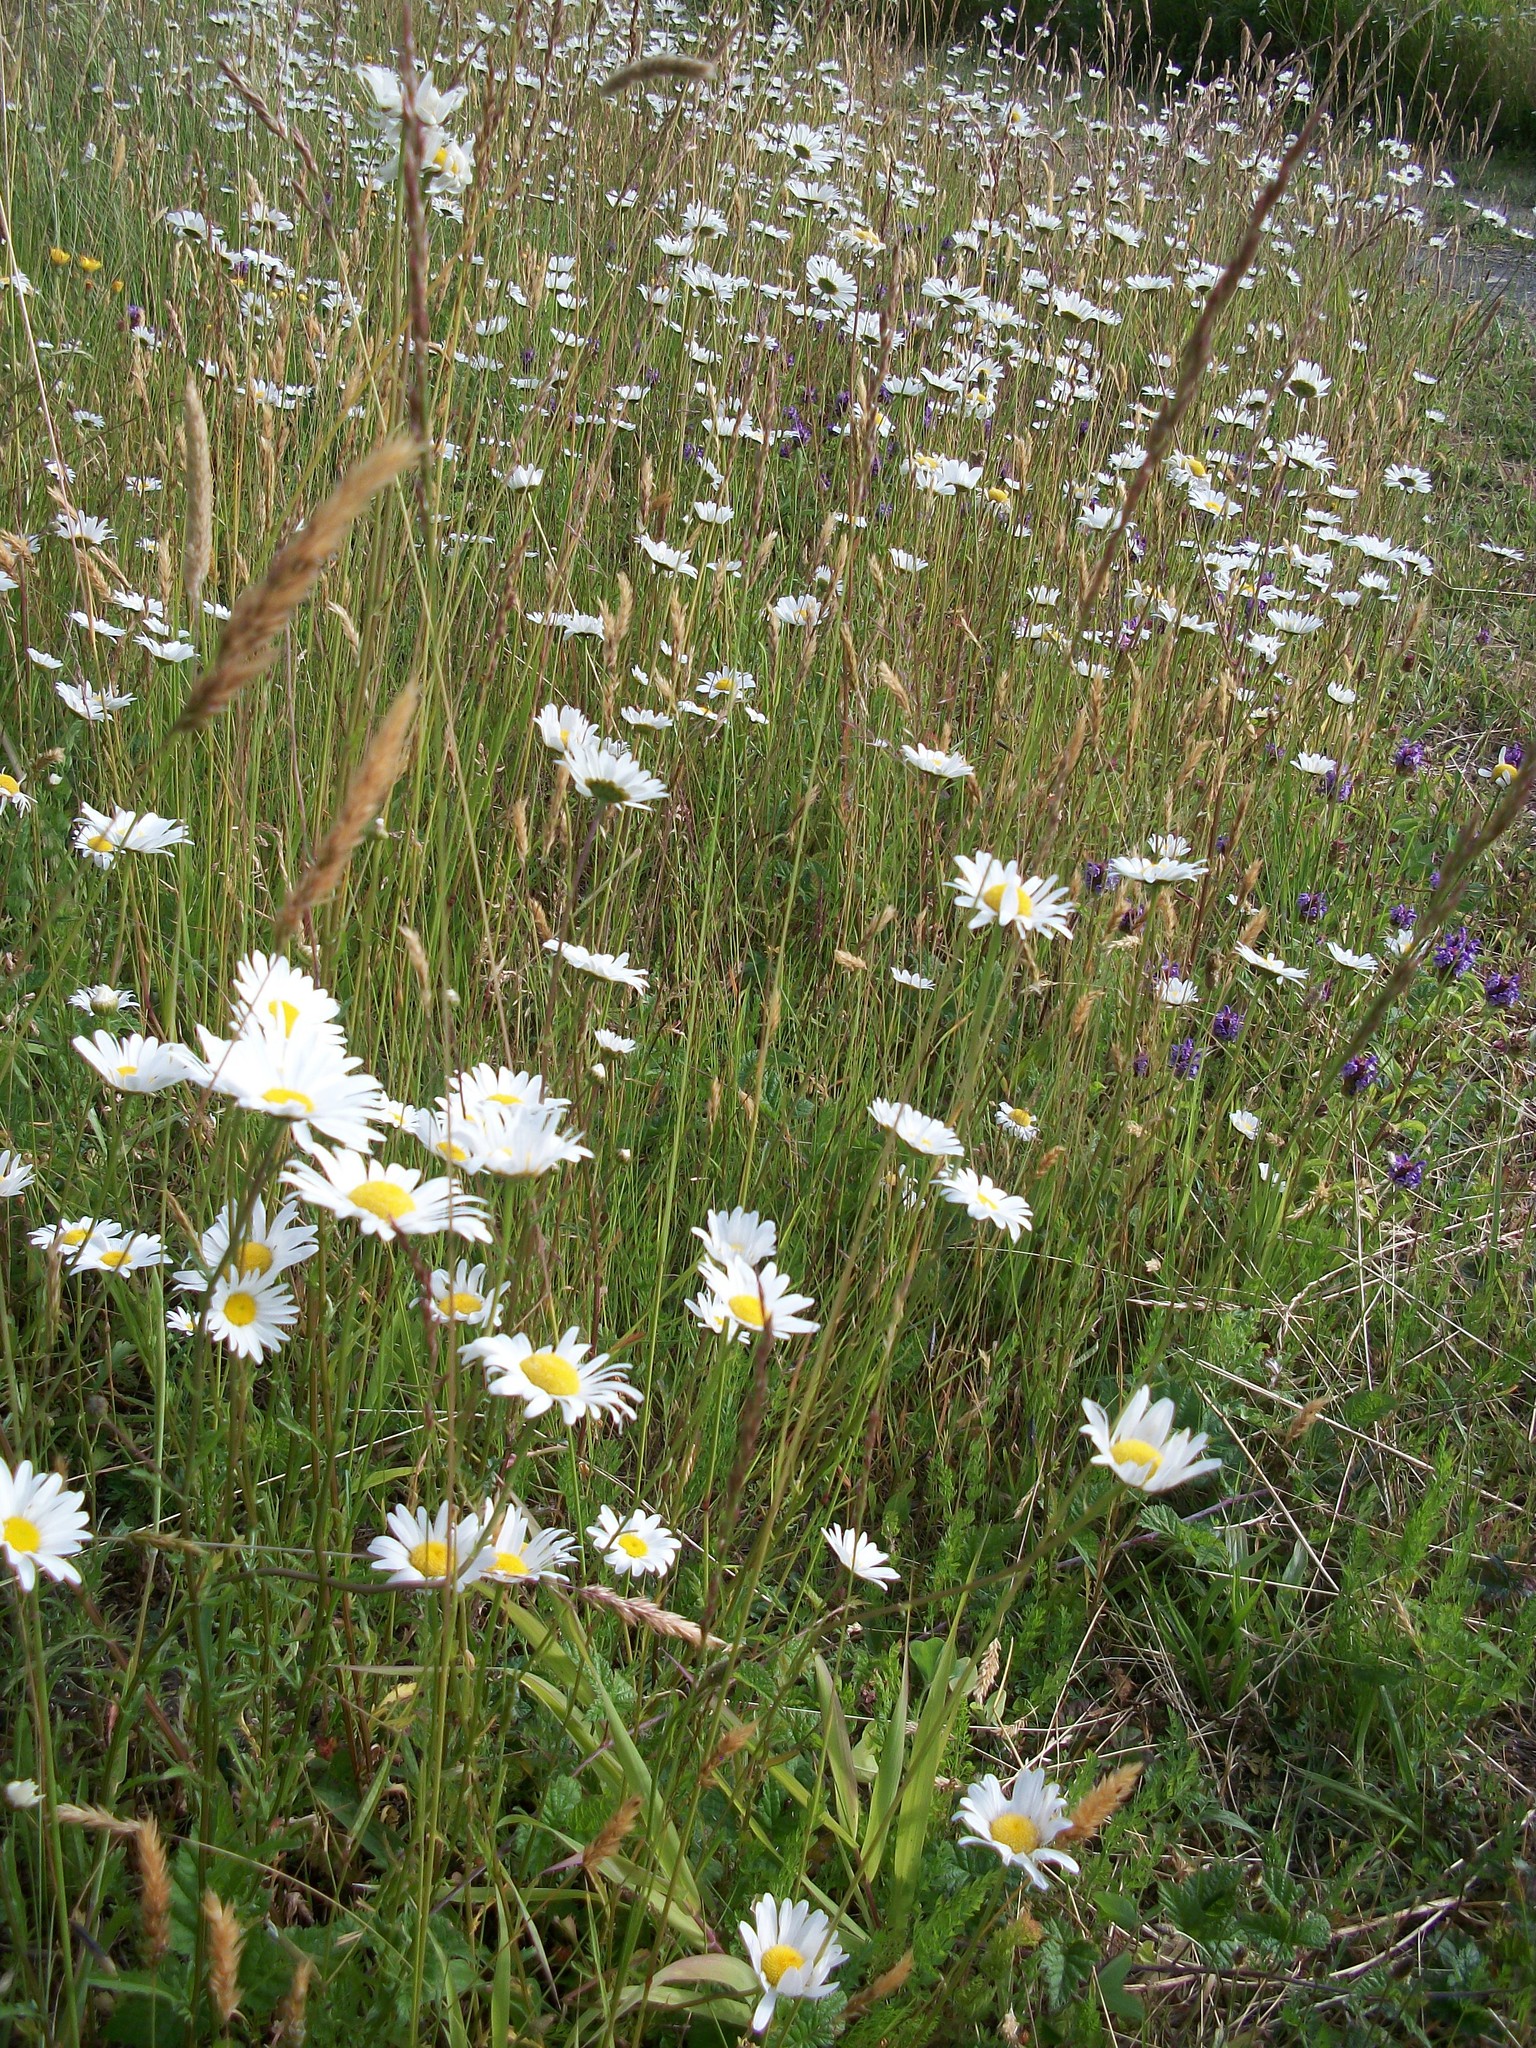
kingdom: Plantae
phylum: Tracheophyta
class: Magnoliopsida
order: Asterales
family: Asteraceae
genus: Leucanthemum
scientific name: Leucanthemum vulgare
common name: Oxeye daisy
